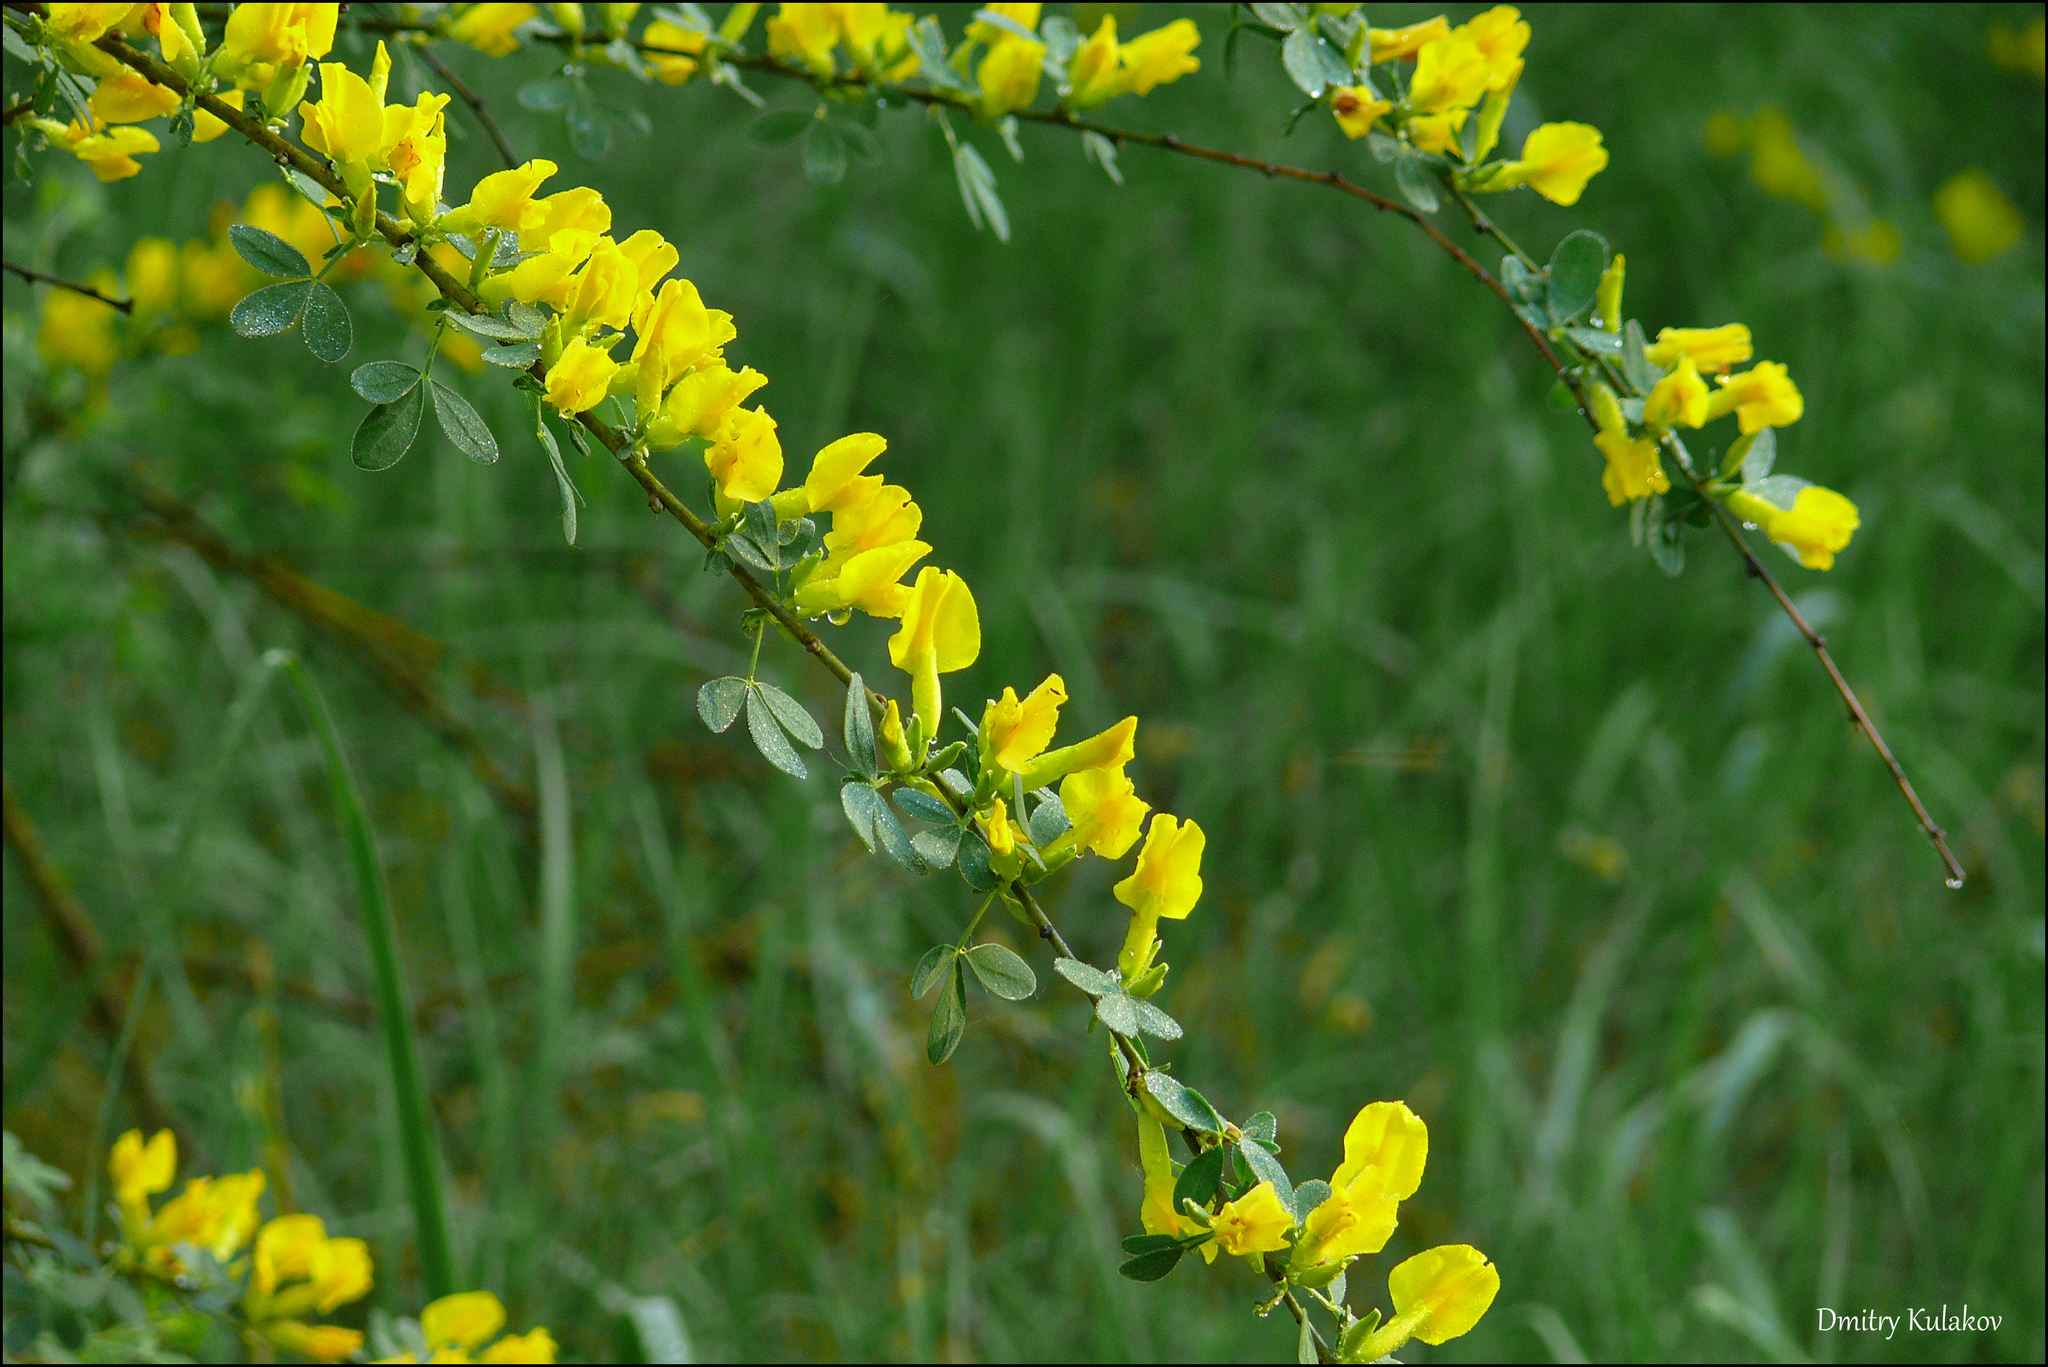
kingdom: Plantae
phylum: Tracheophyta
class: Magnoliopsida
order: Fabales
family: Fabaceae
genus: Chamaecytisus
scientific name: Chamaecytisus ruthenicus
